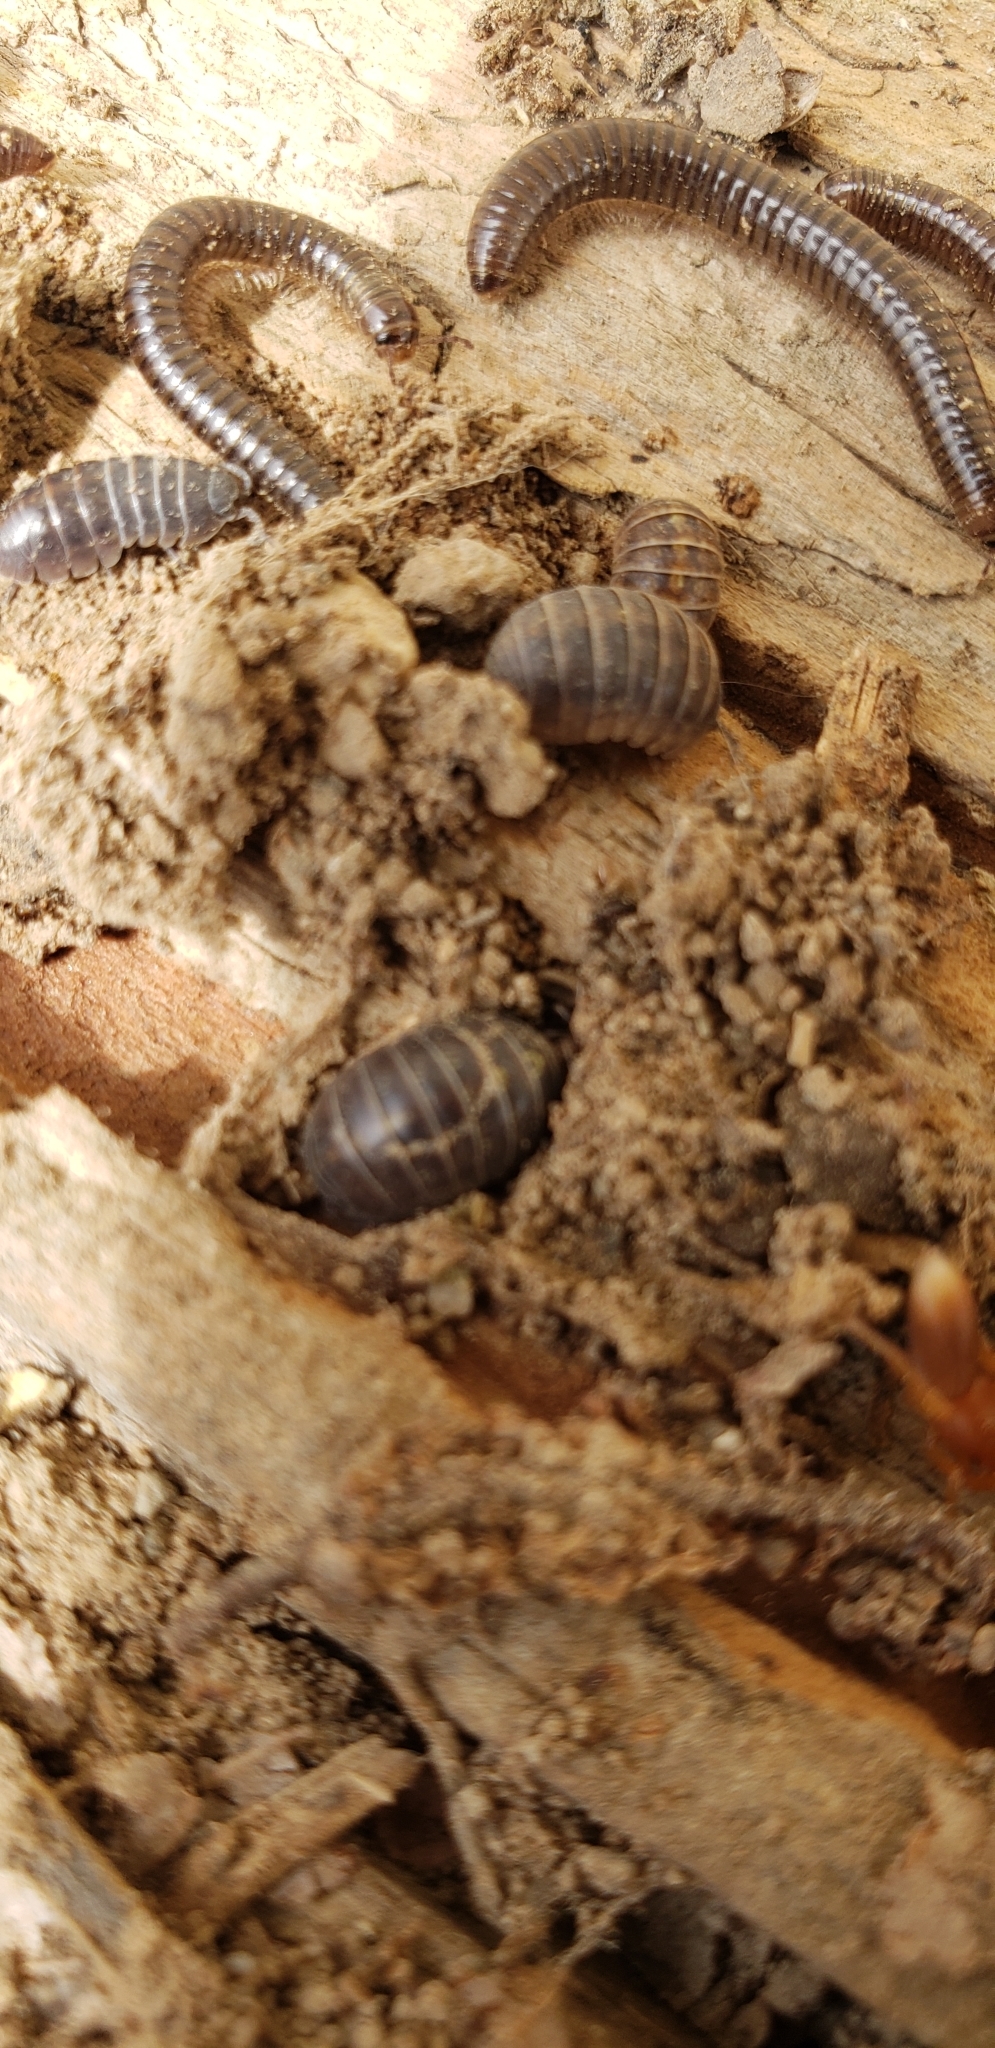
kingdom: Animalia
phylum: Arthropoda
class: Malacostraca
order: Isopoda
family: Armadillidiidae
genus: Armadillidium
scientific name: Armadillidium vulgare
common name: Common pill woodlouse
